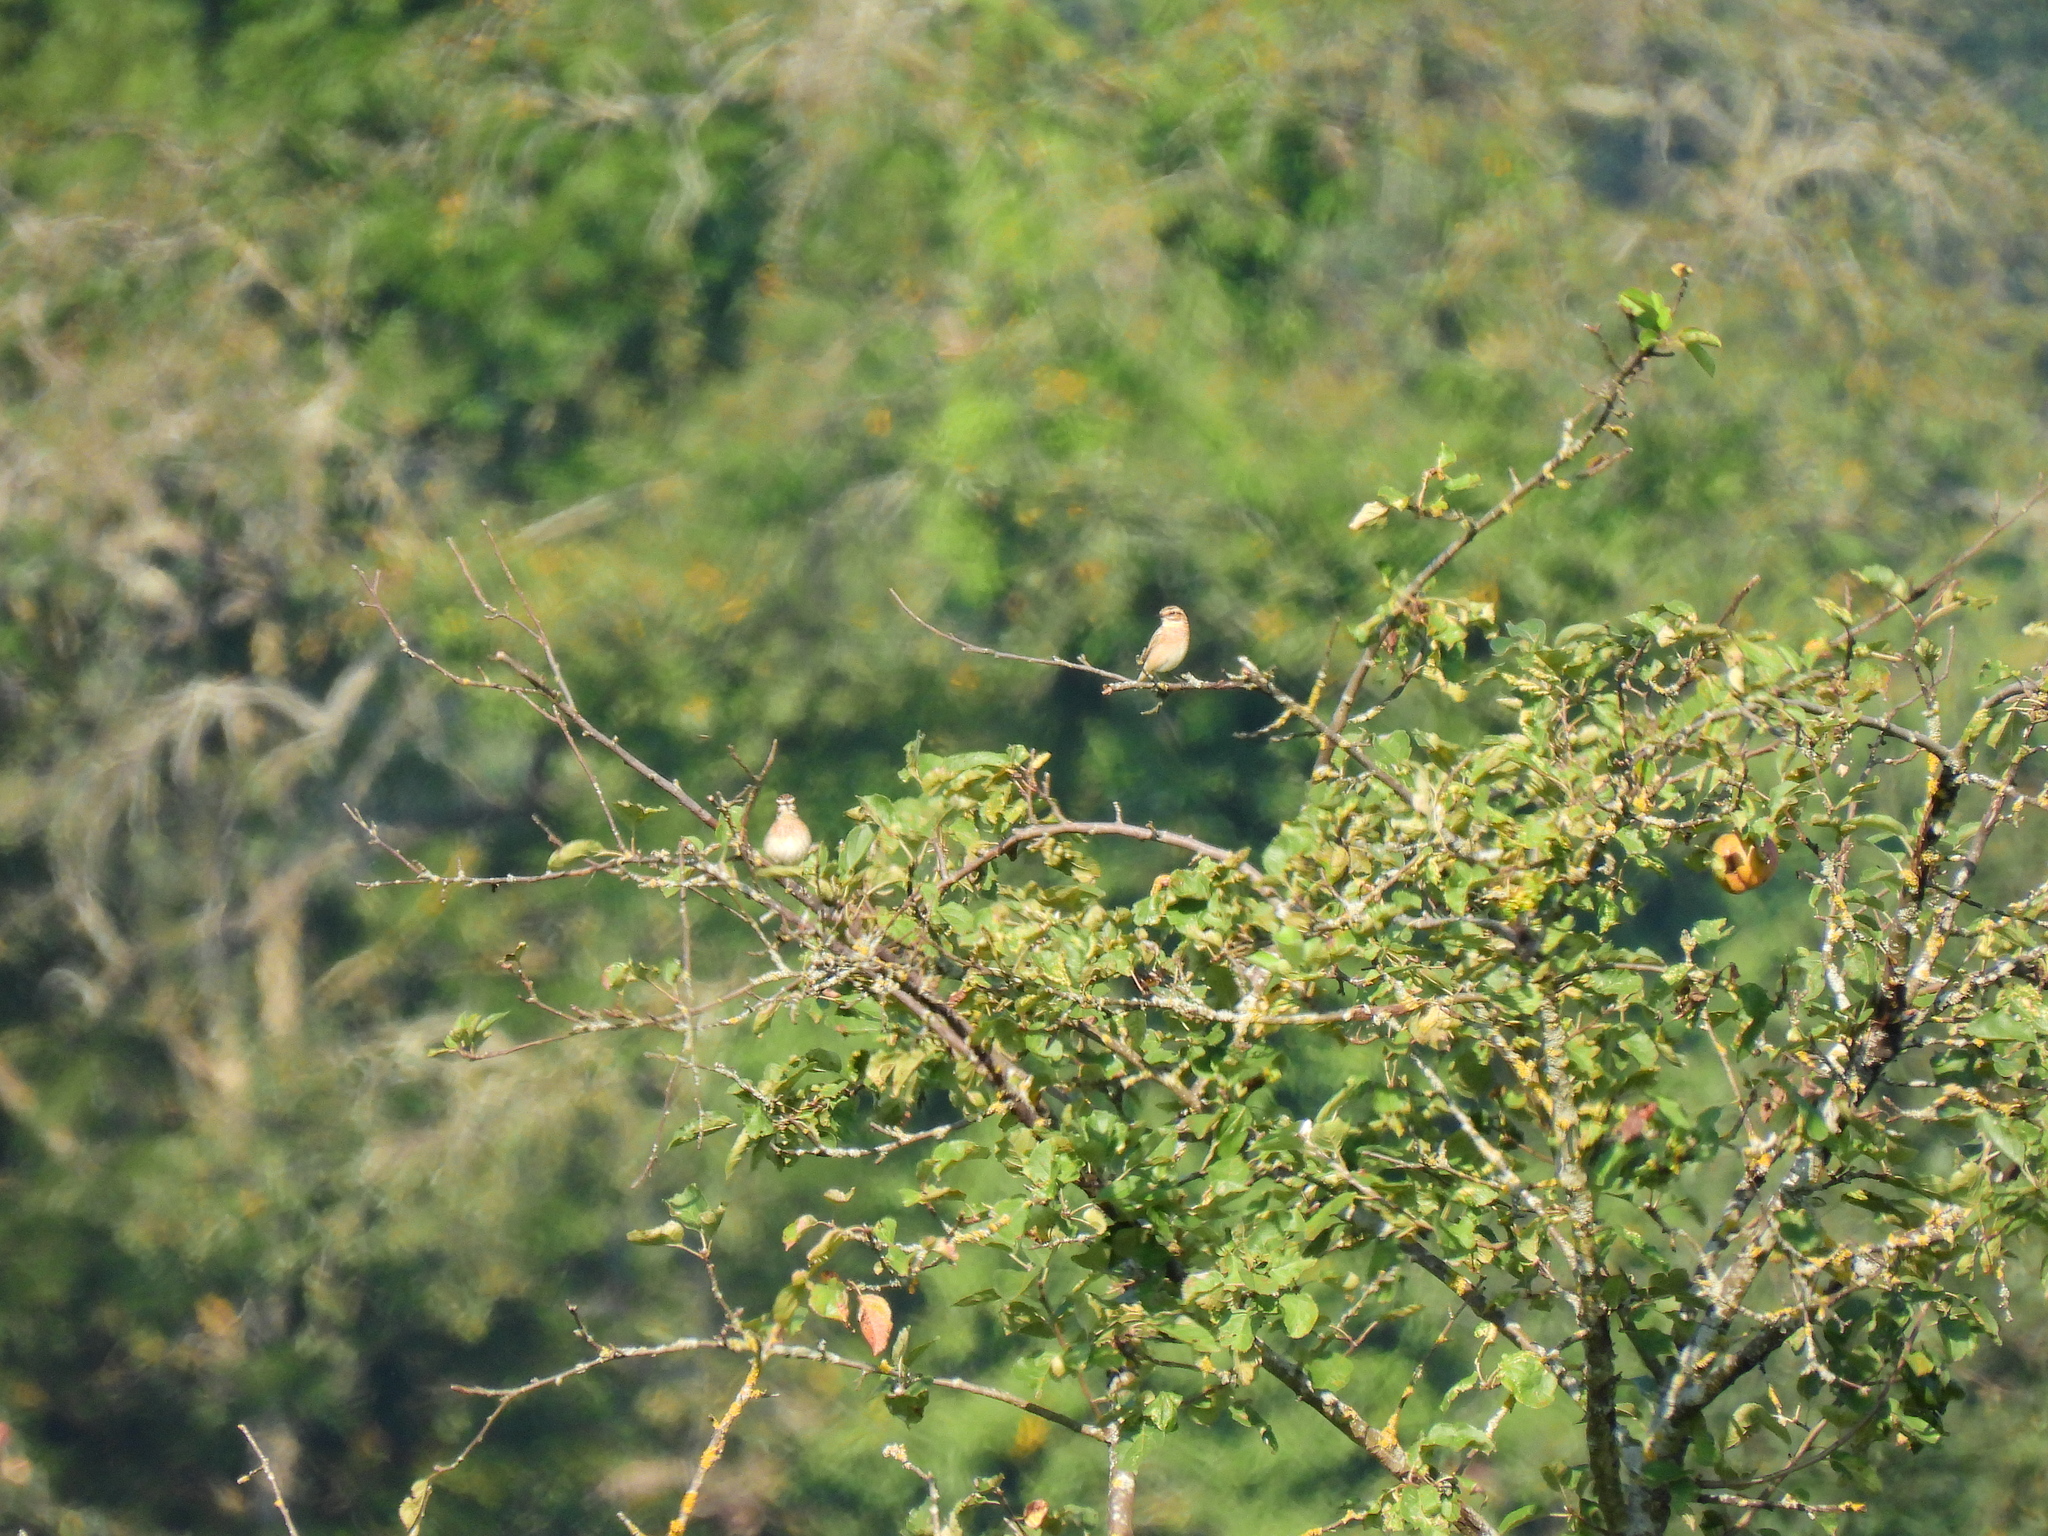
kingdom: Animalia
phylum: Chordata
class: Aves
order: Passeriformes
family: Muscicapidae
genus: Saxicola
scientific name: Saxicola rubetra
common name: Whinchat
